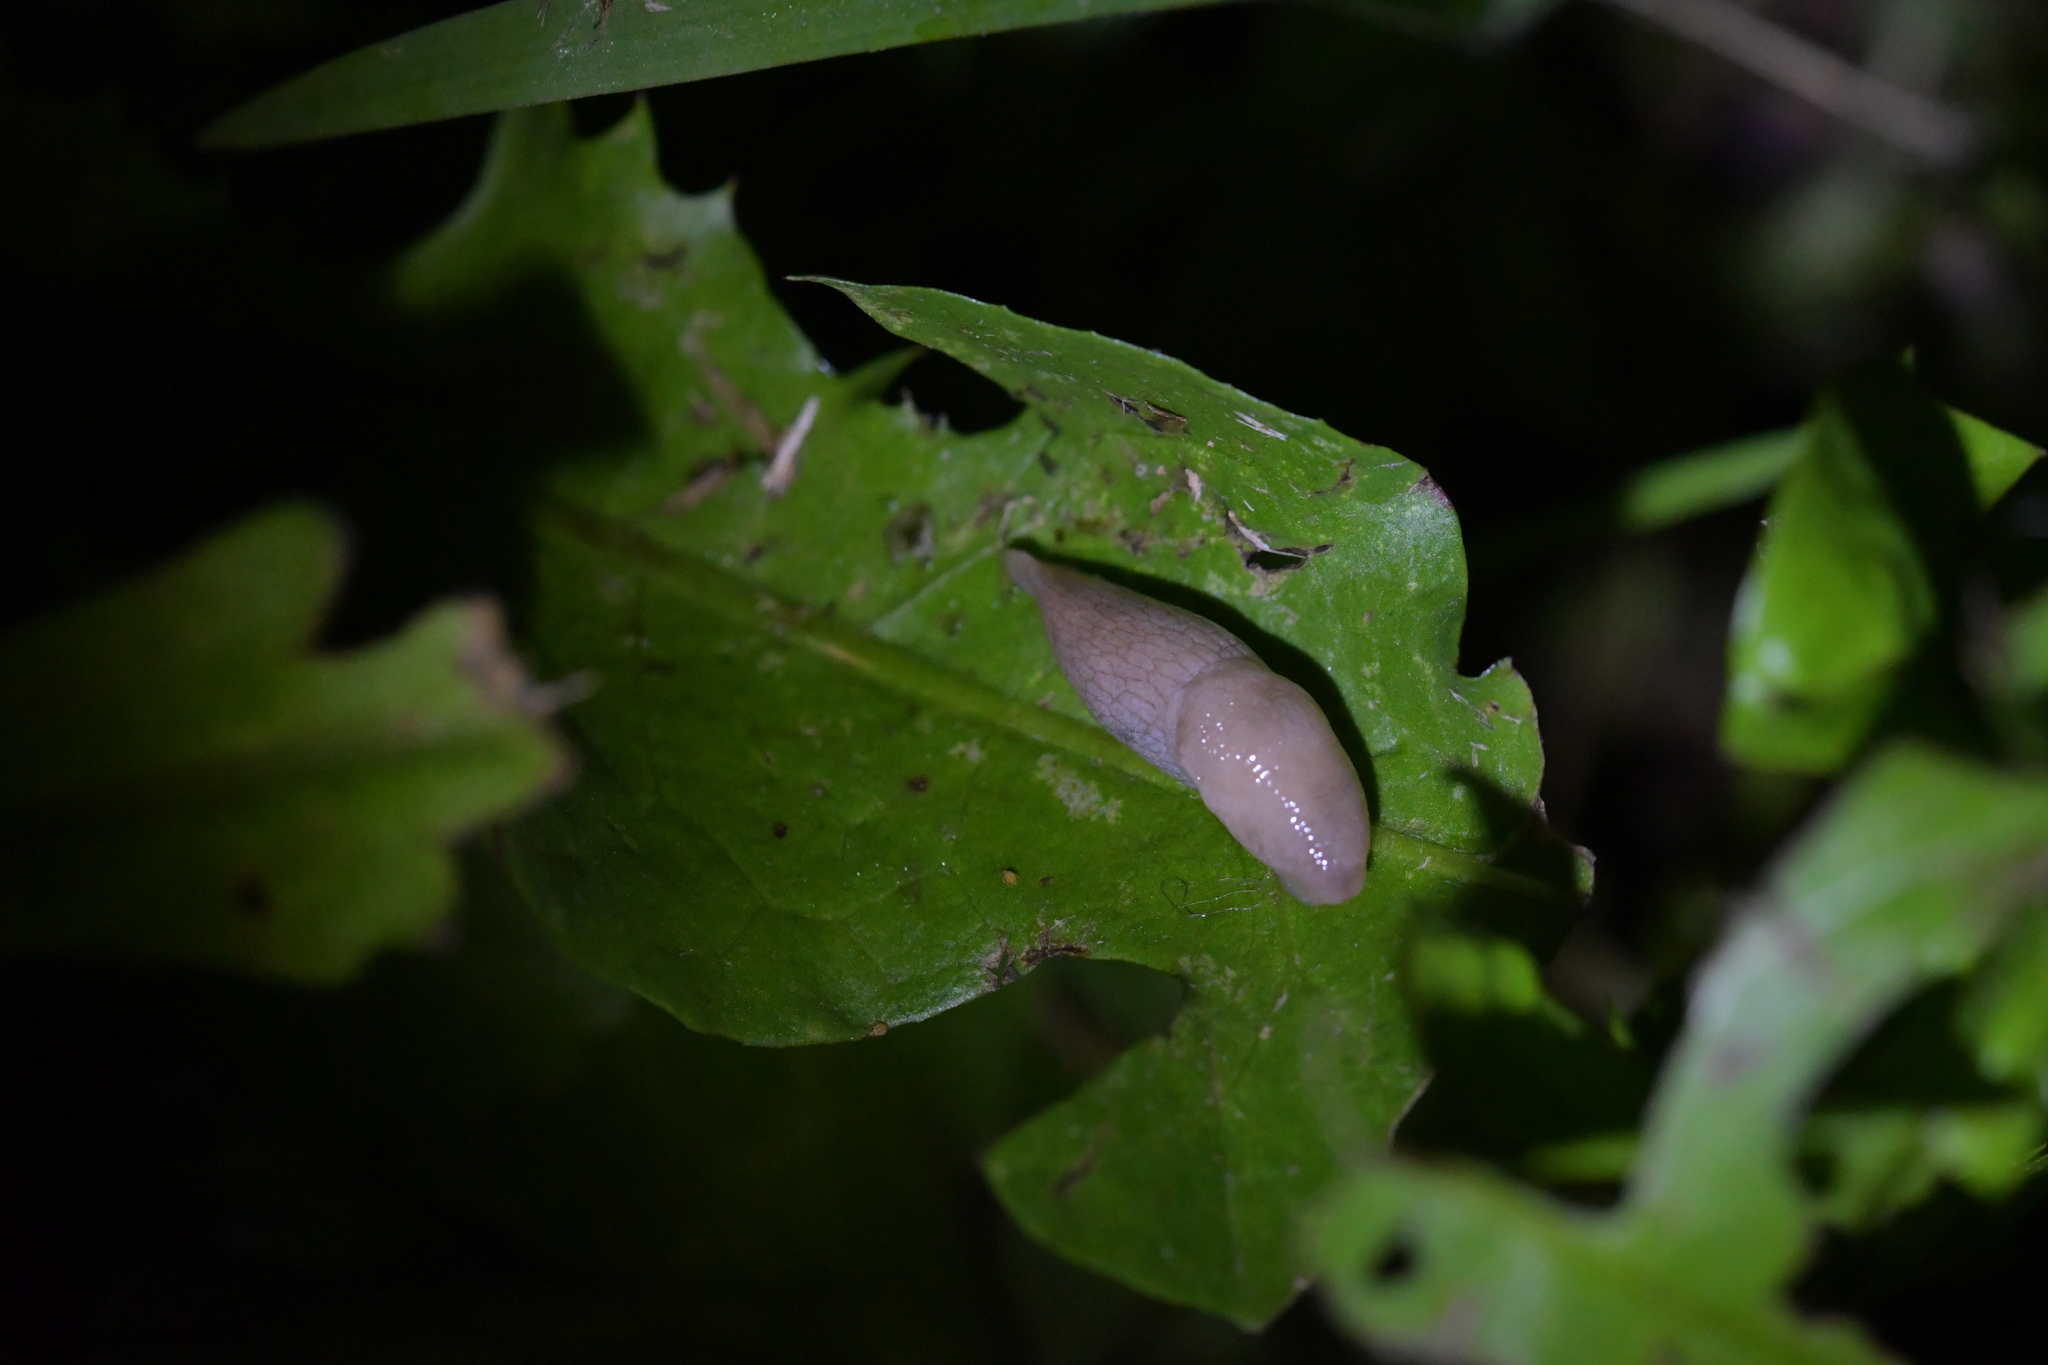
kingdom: Animalia
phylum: Mollusca
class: Gastropoda
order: Stylommatophora
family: Agriolimacidae
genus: Deroceras
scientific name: Deroceras reticulatum
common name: Gray field slug
